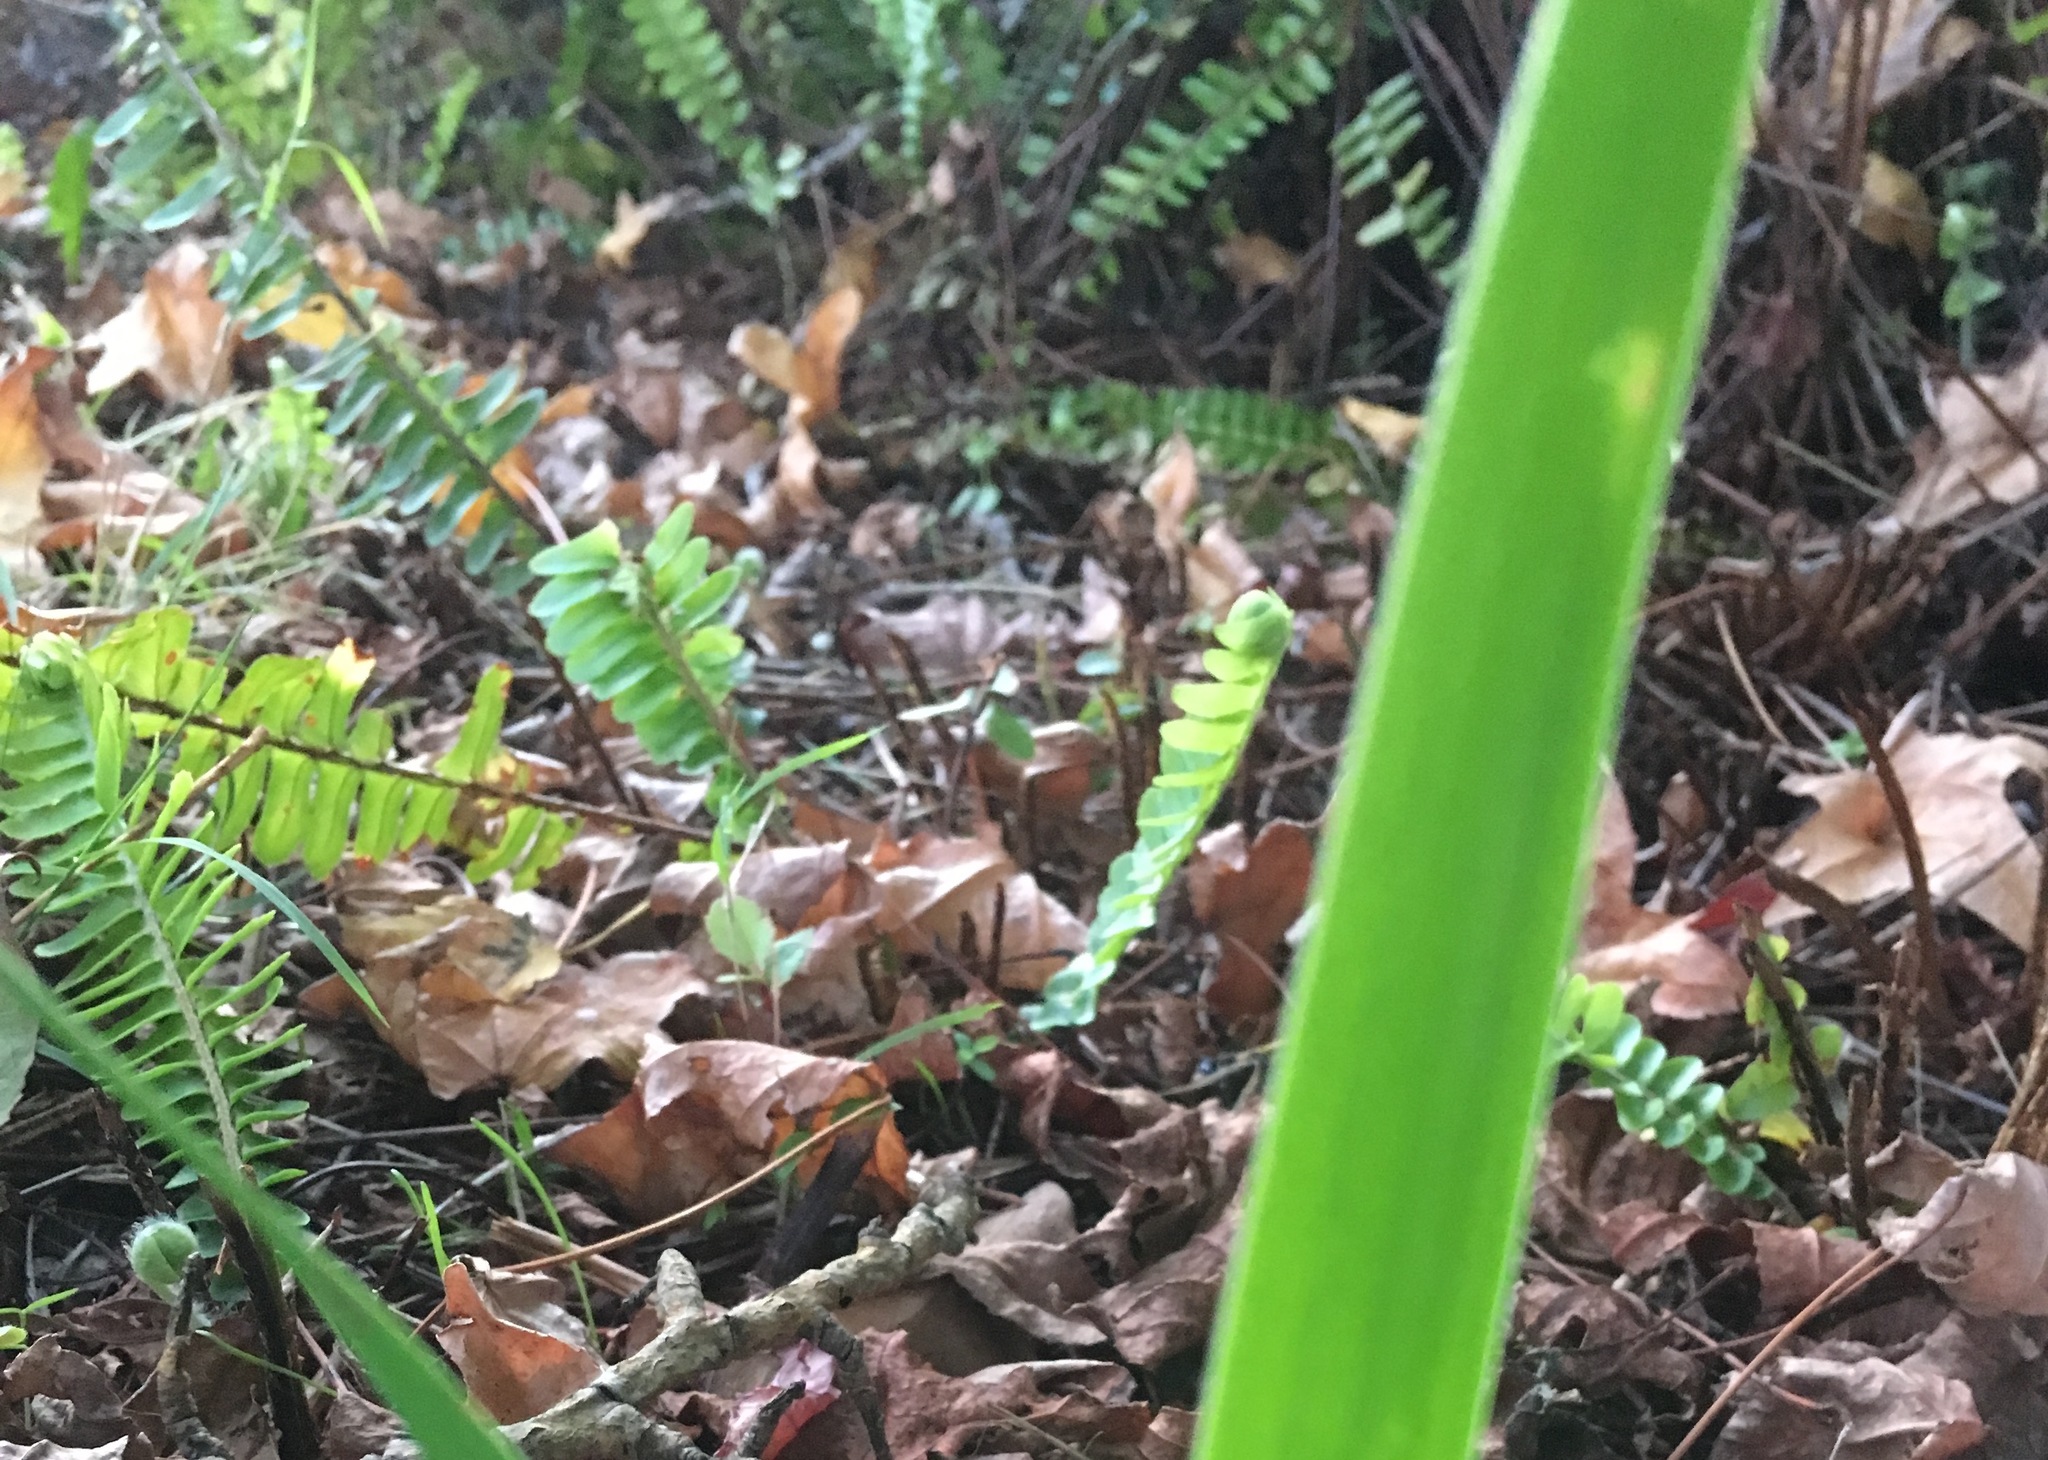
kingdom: Plantae
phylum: Tracheophyta
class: Polypodiopsida
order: Polypodiales
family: Nephrolepidaceae
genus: Nephrolepis
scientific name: Nephrolepis cordifolia
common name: Narrow swordfern
